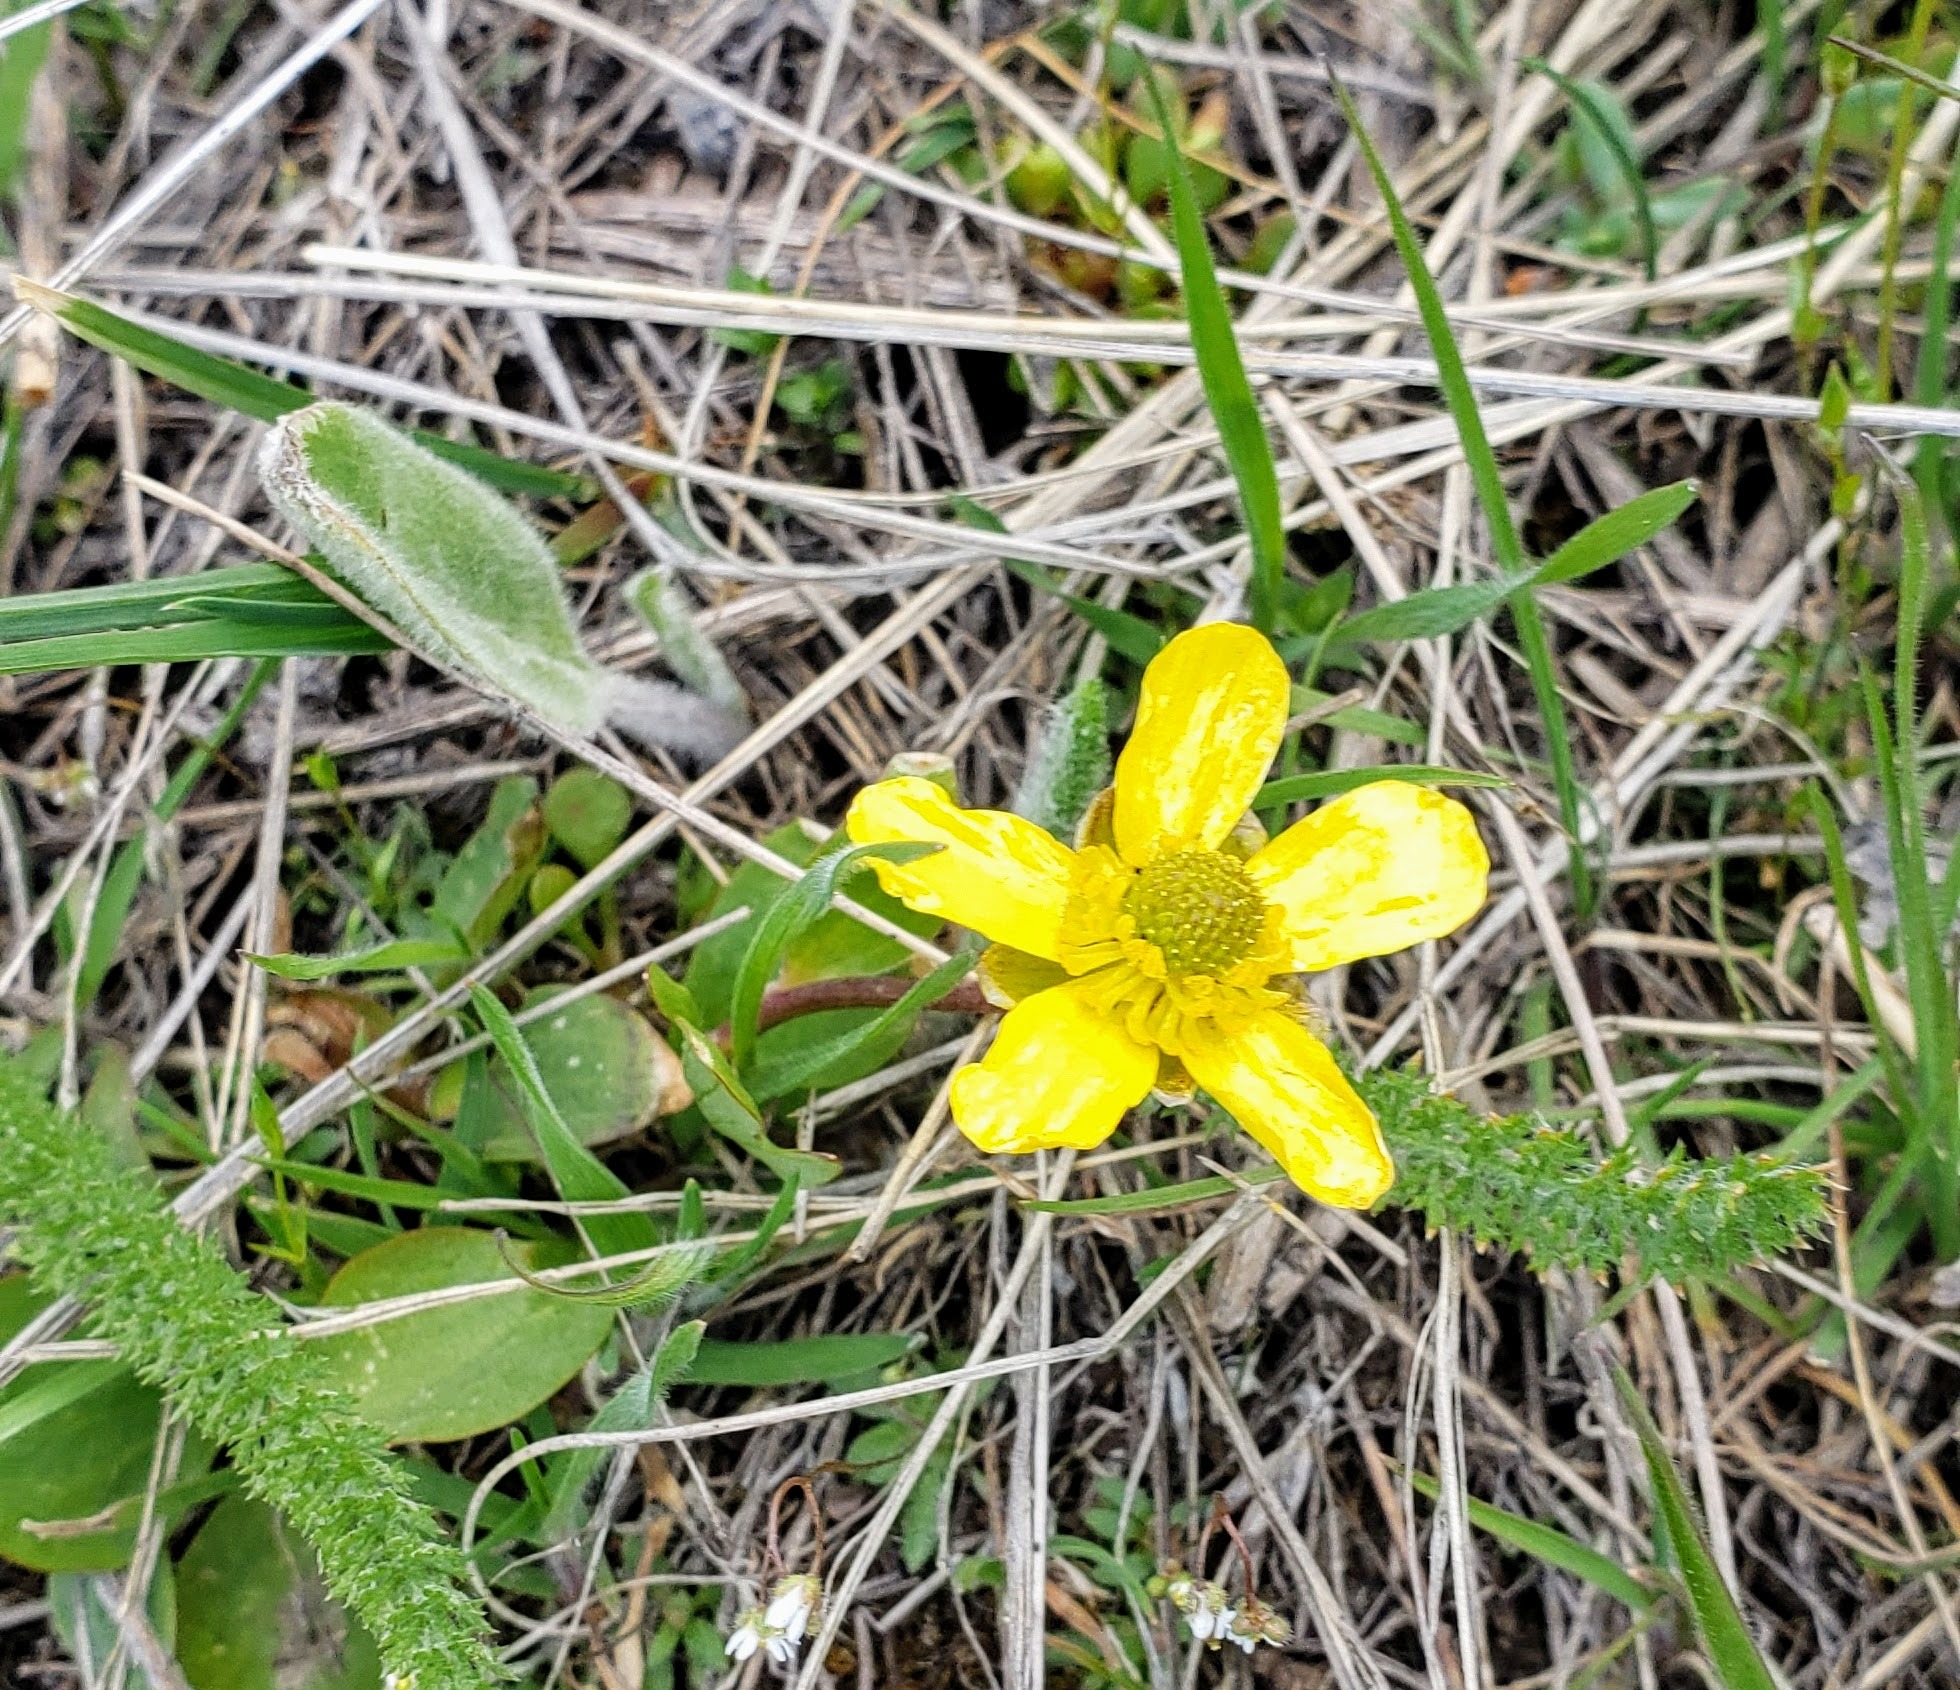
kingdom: Plantae
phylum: Tracheophyta
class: Magnoliopsida
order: Ranunculales
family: Ranunculaceae
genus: Ranunculus
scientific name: Ranunculus glaberrimus
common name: Sagebrush buttercup
